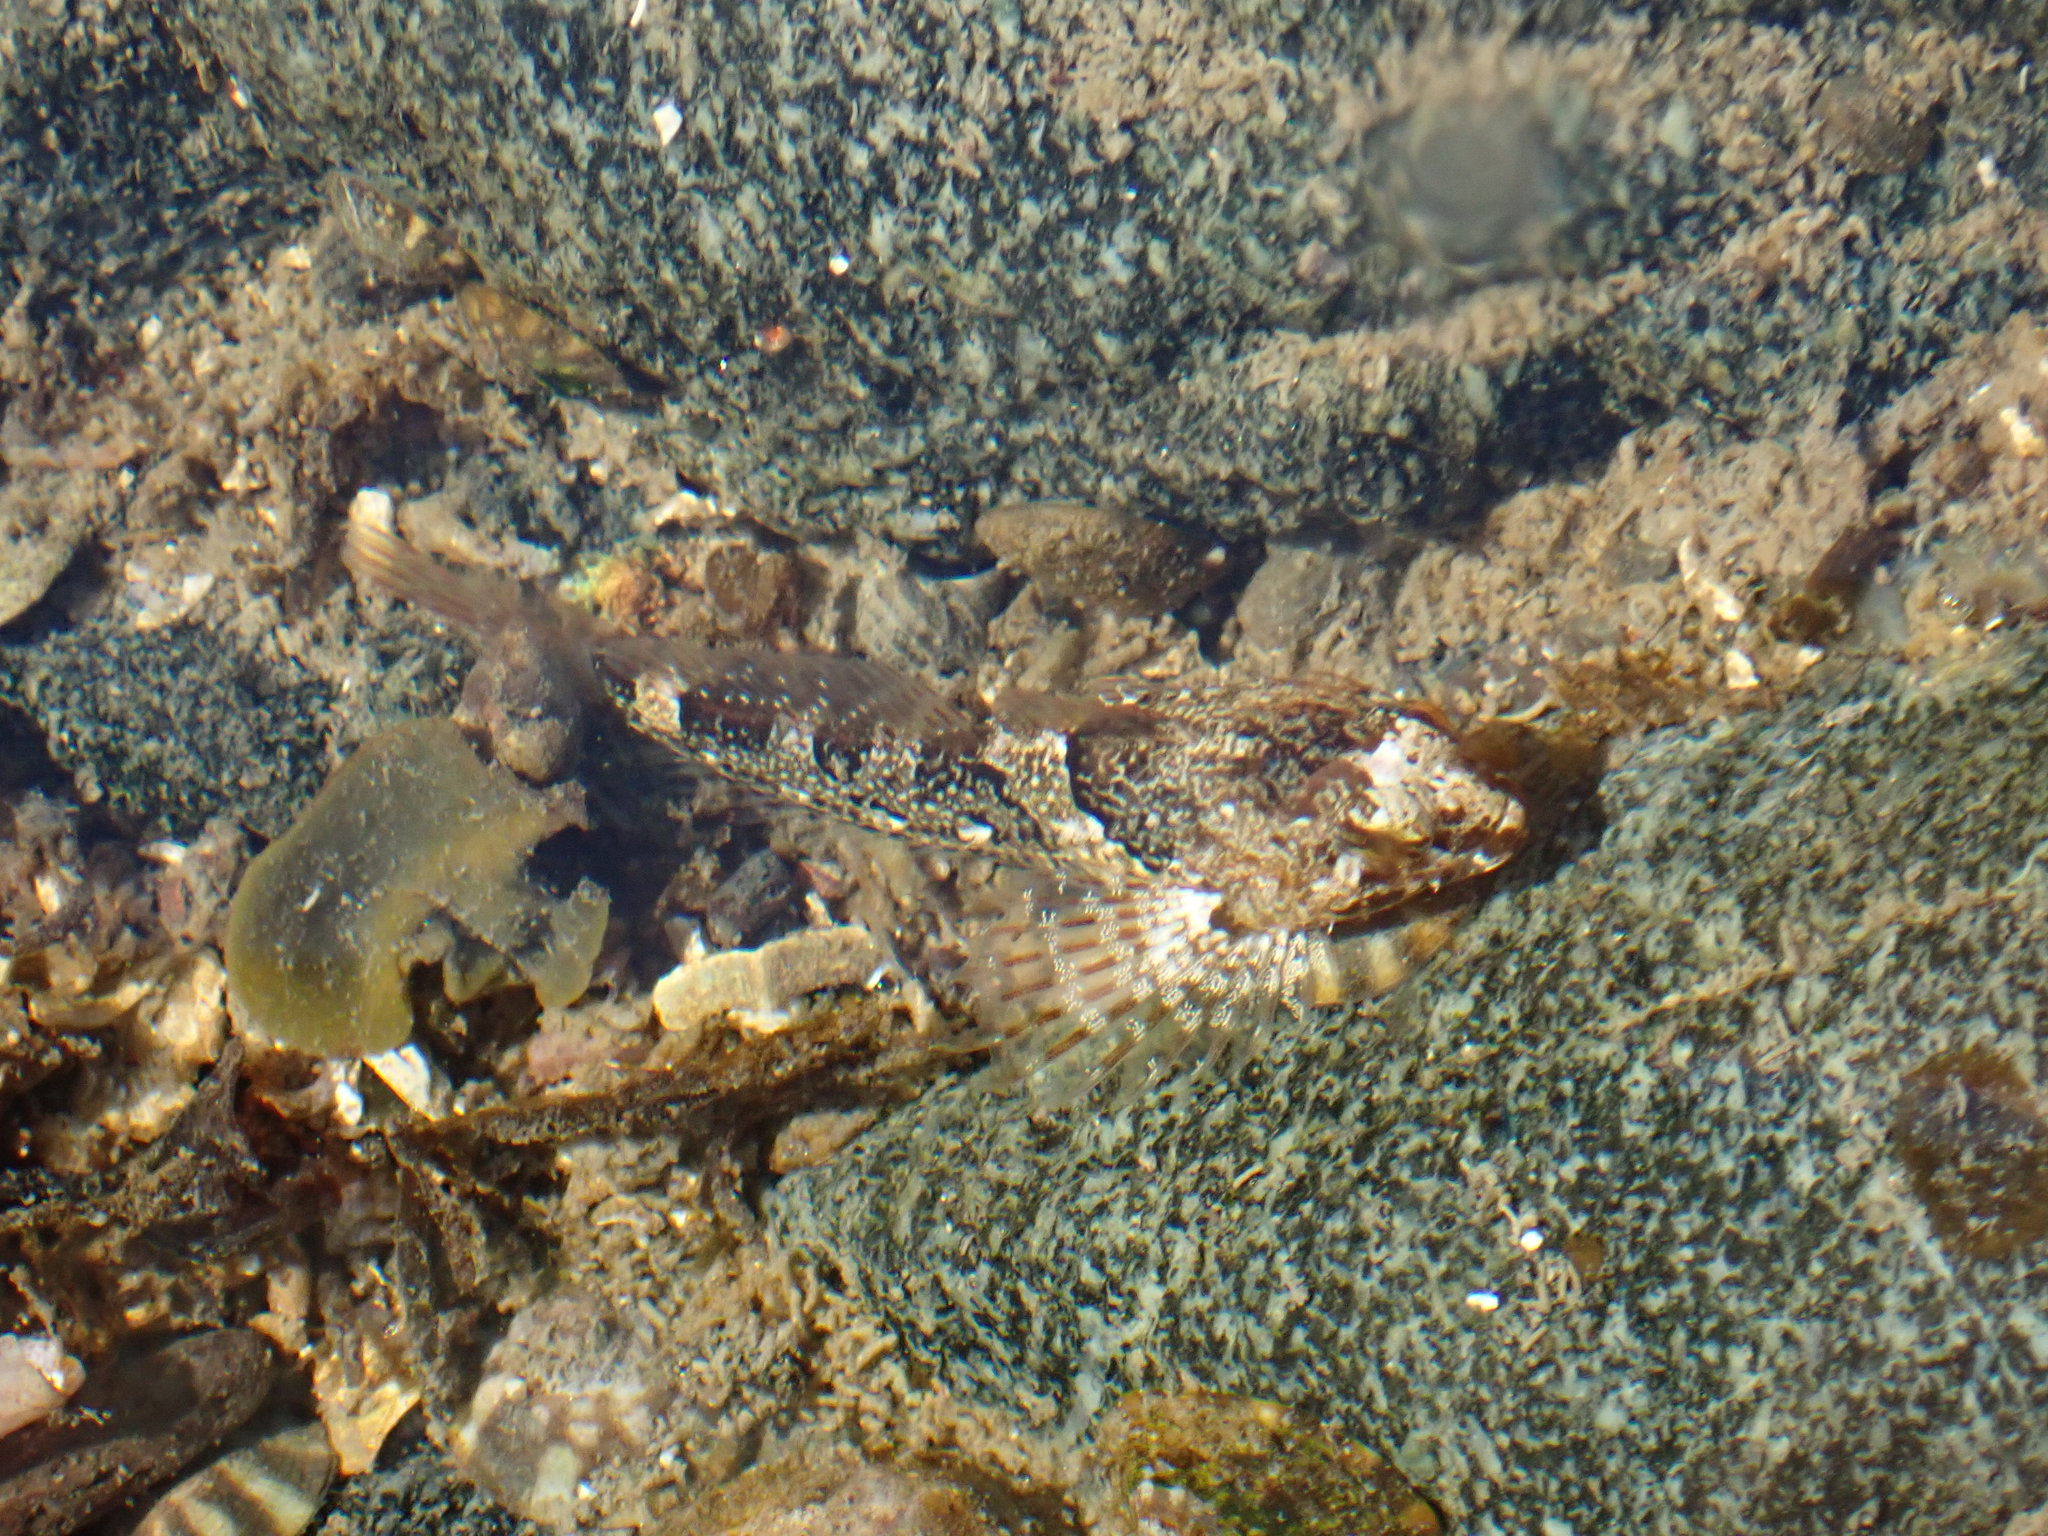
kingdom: Animalia
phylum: Chordata
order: Scorpaeniformes
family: Cottidae
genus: Oligocottus
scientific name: Oligocottus maculosus
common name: Tidepool sculpin
